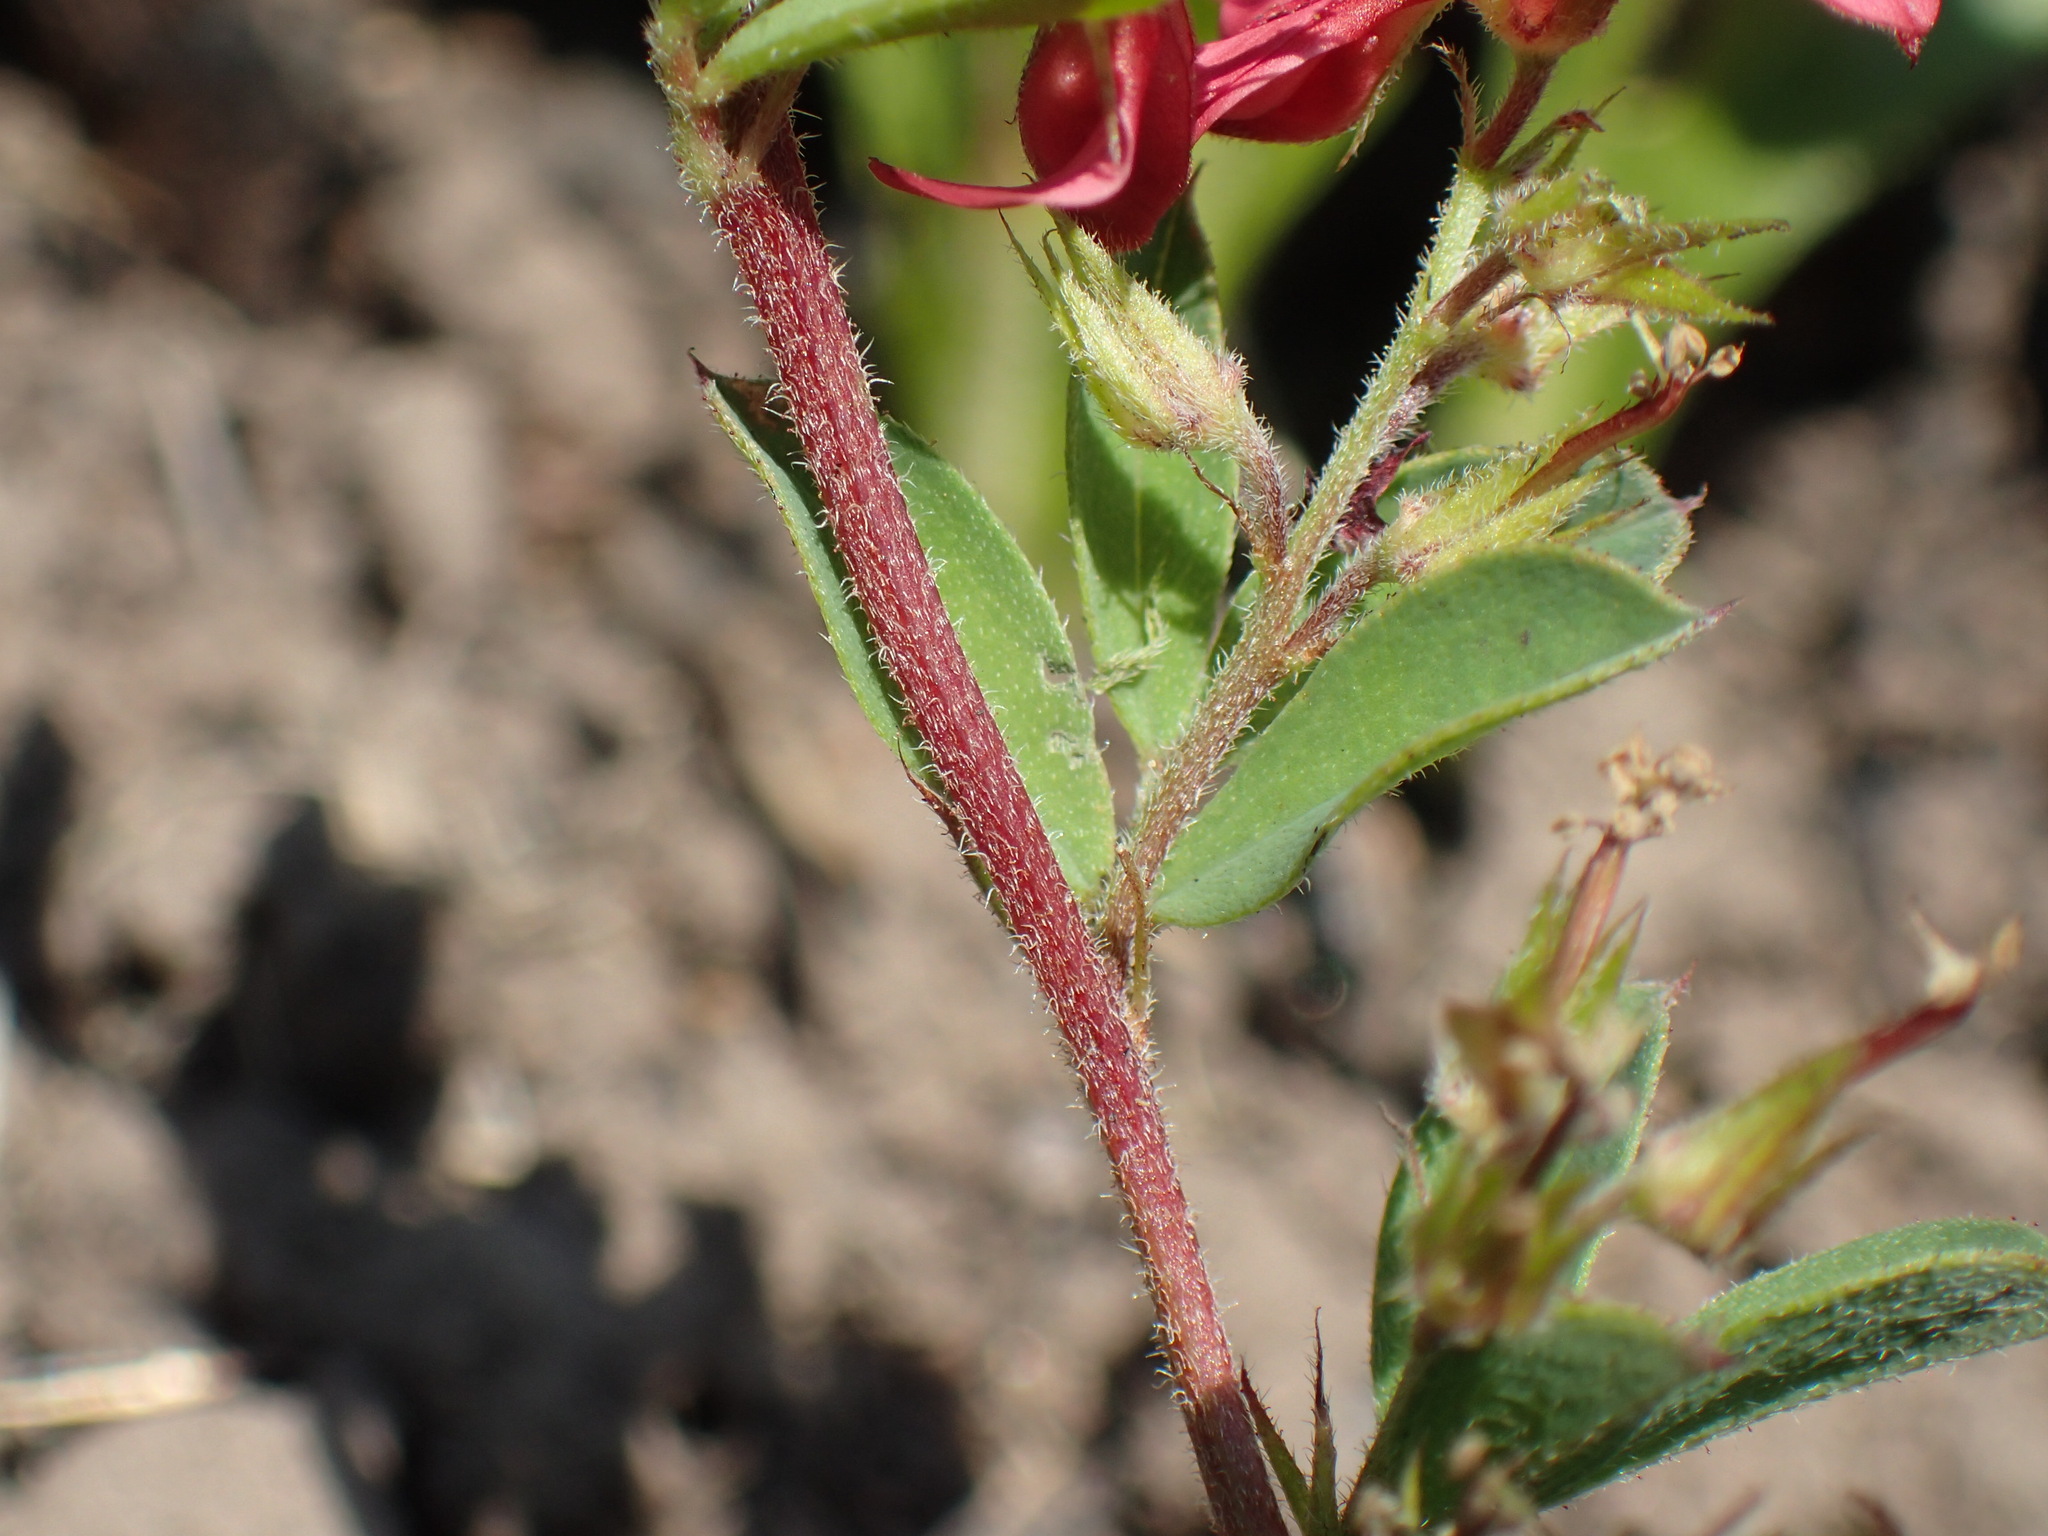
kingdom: Plantae
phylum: Tracheophyta
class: Magnoliopsida
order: Fabales
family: Fabaceae
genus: Indigofera
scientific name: Indigofera hilaris
